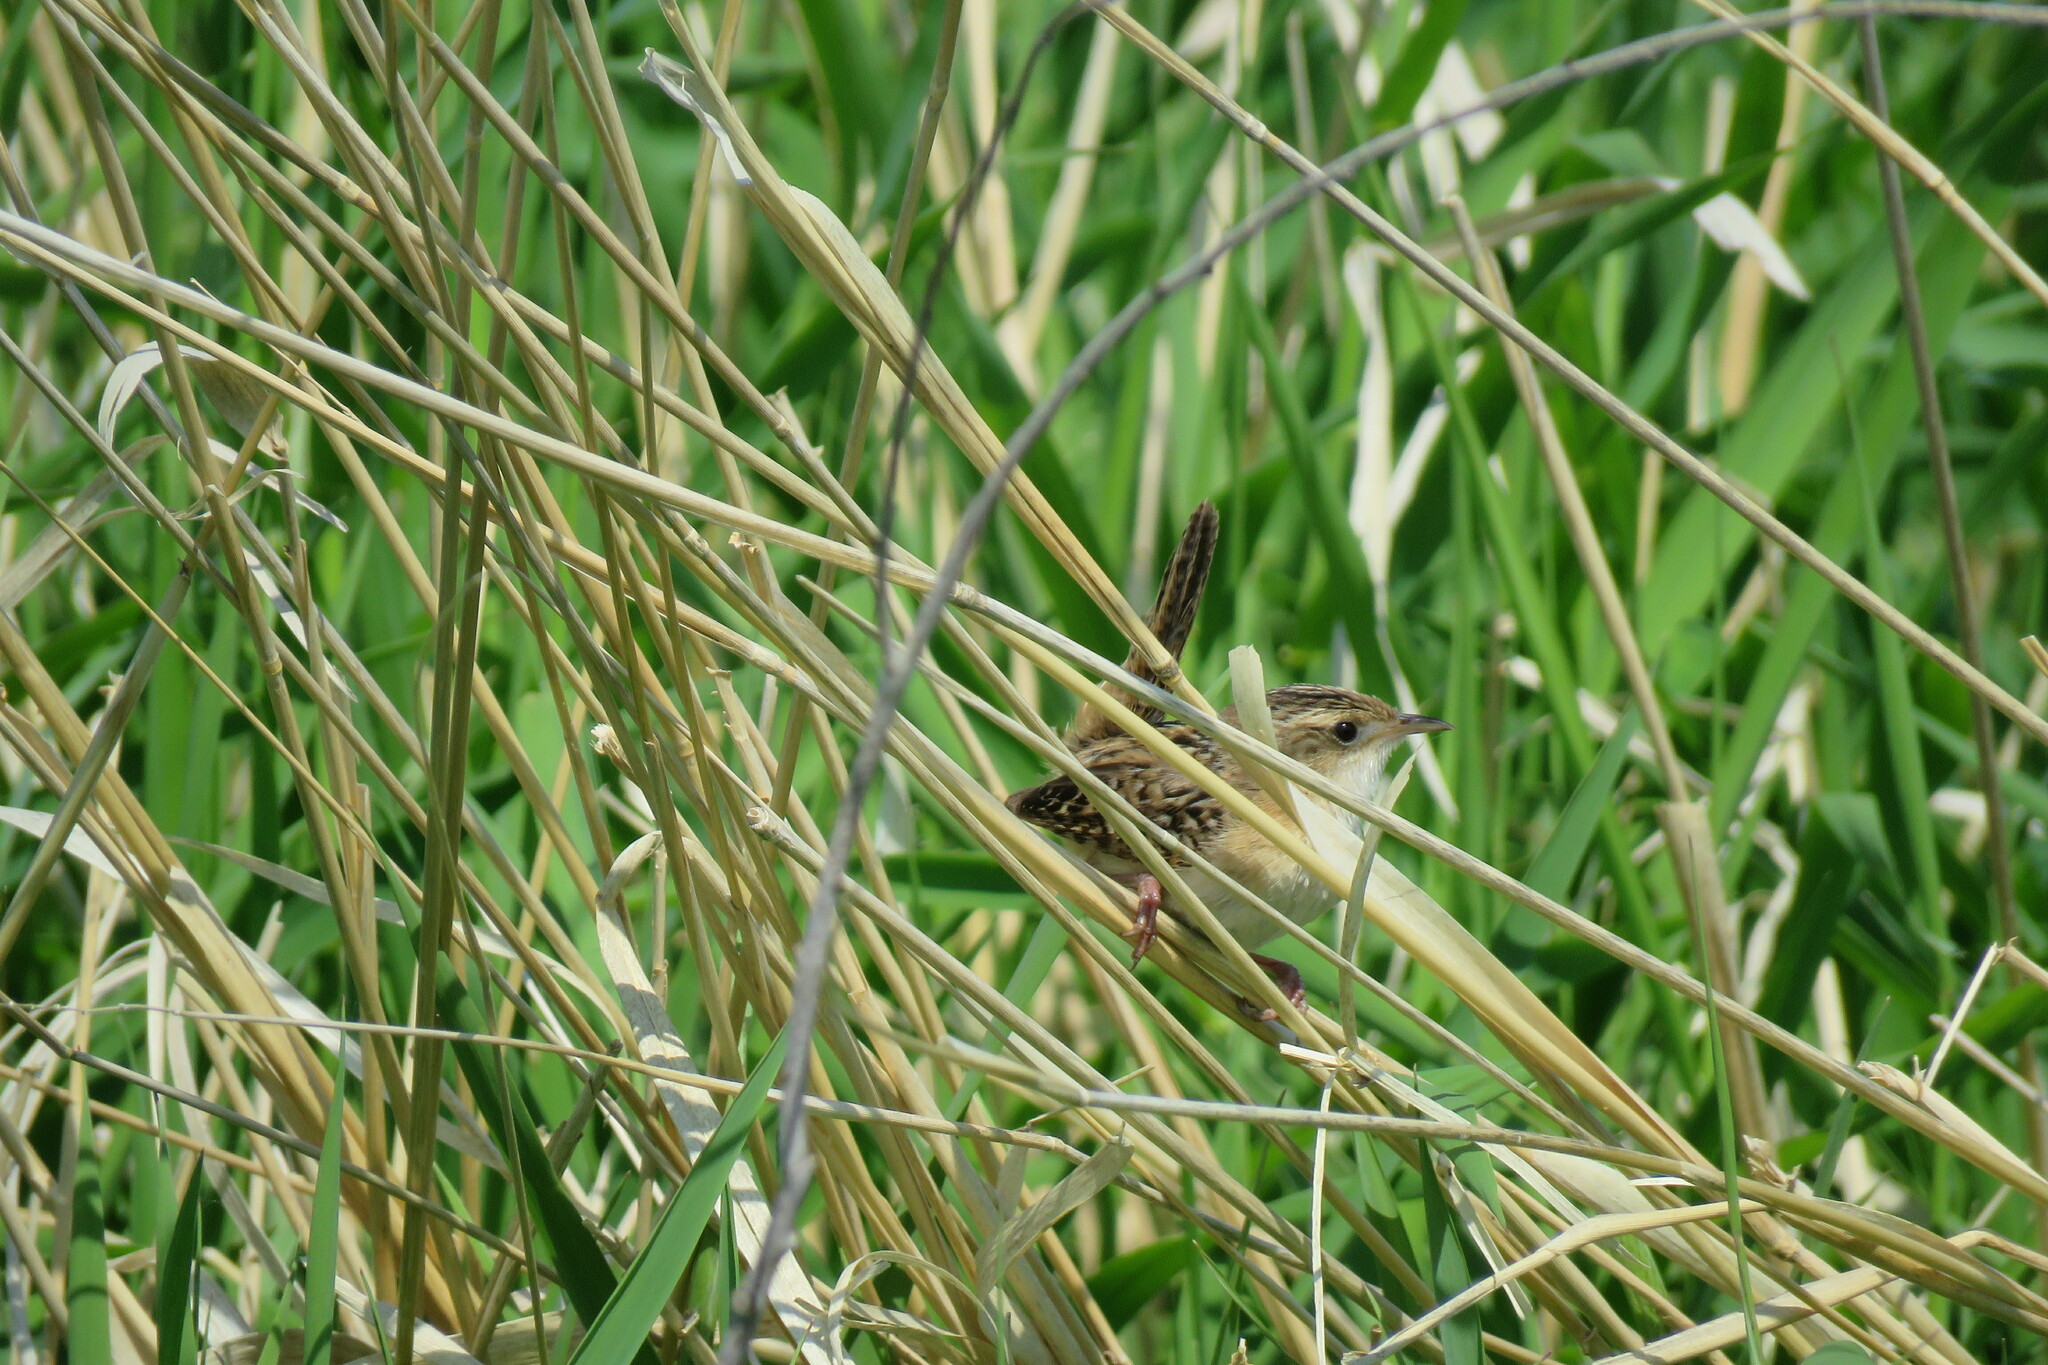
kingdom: Animalia
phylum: Chordata
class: Aves
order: Passeriformes
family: Troglodytidae
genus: Cistothorus
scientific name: Cistothorus platensis
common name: Sedge wren
